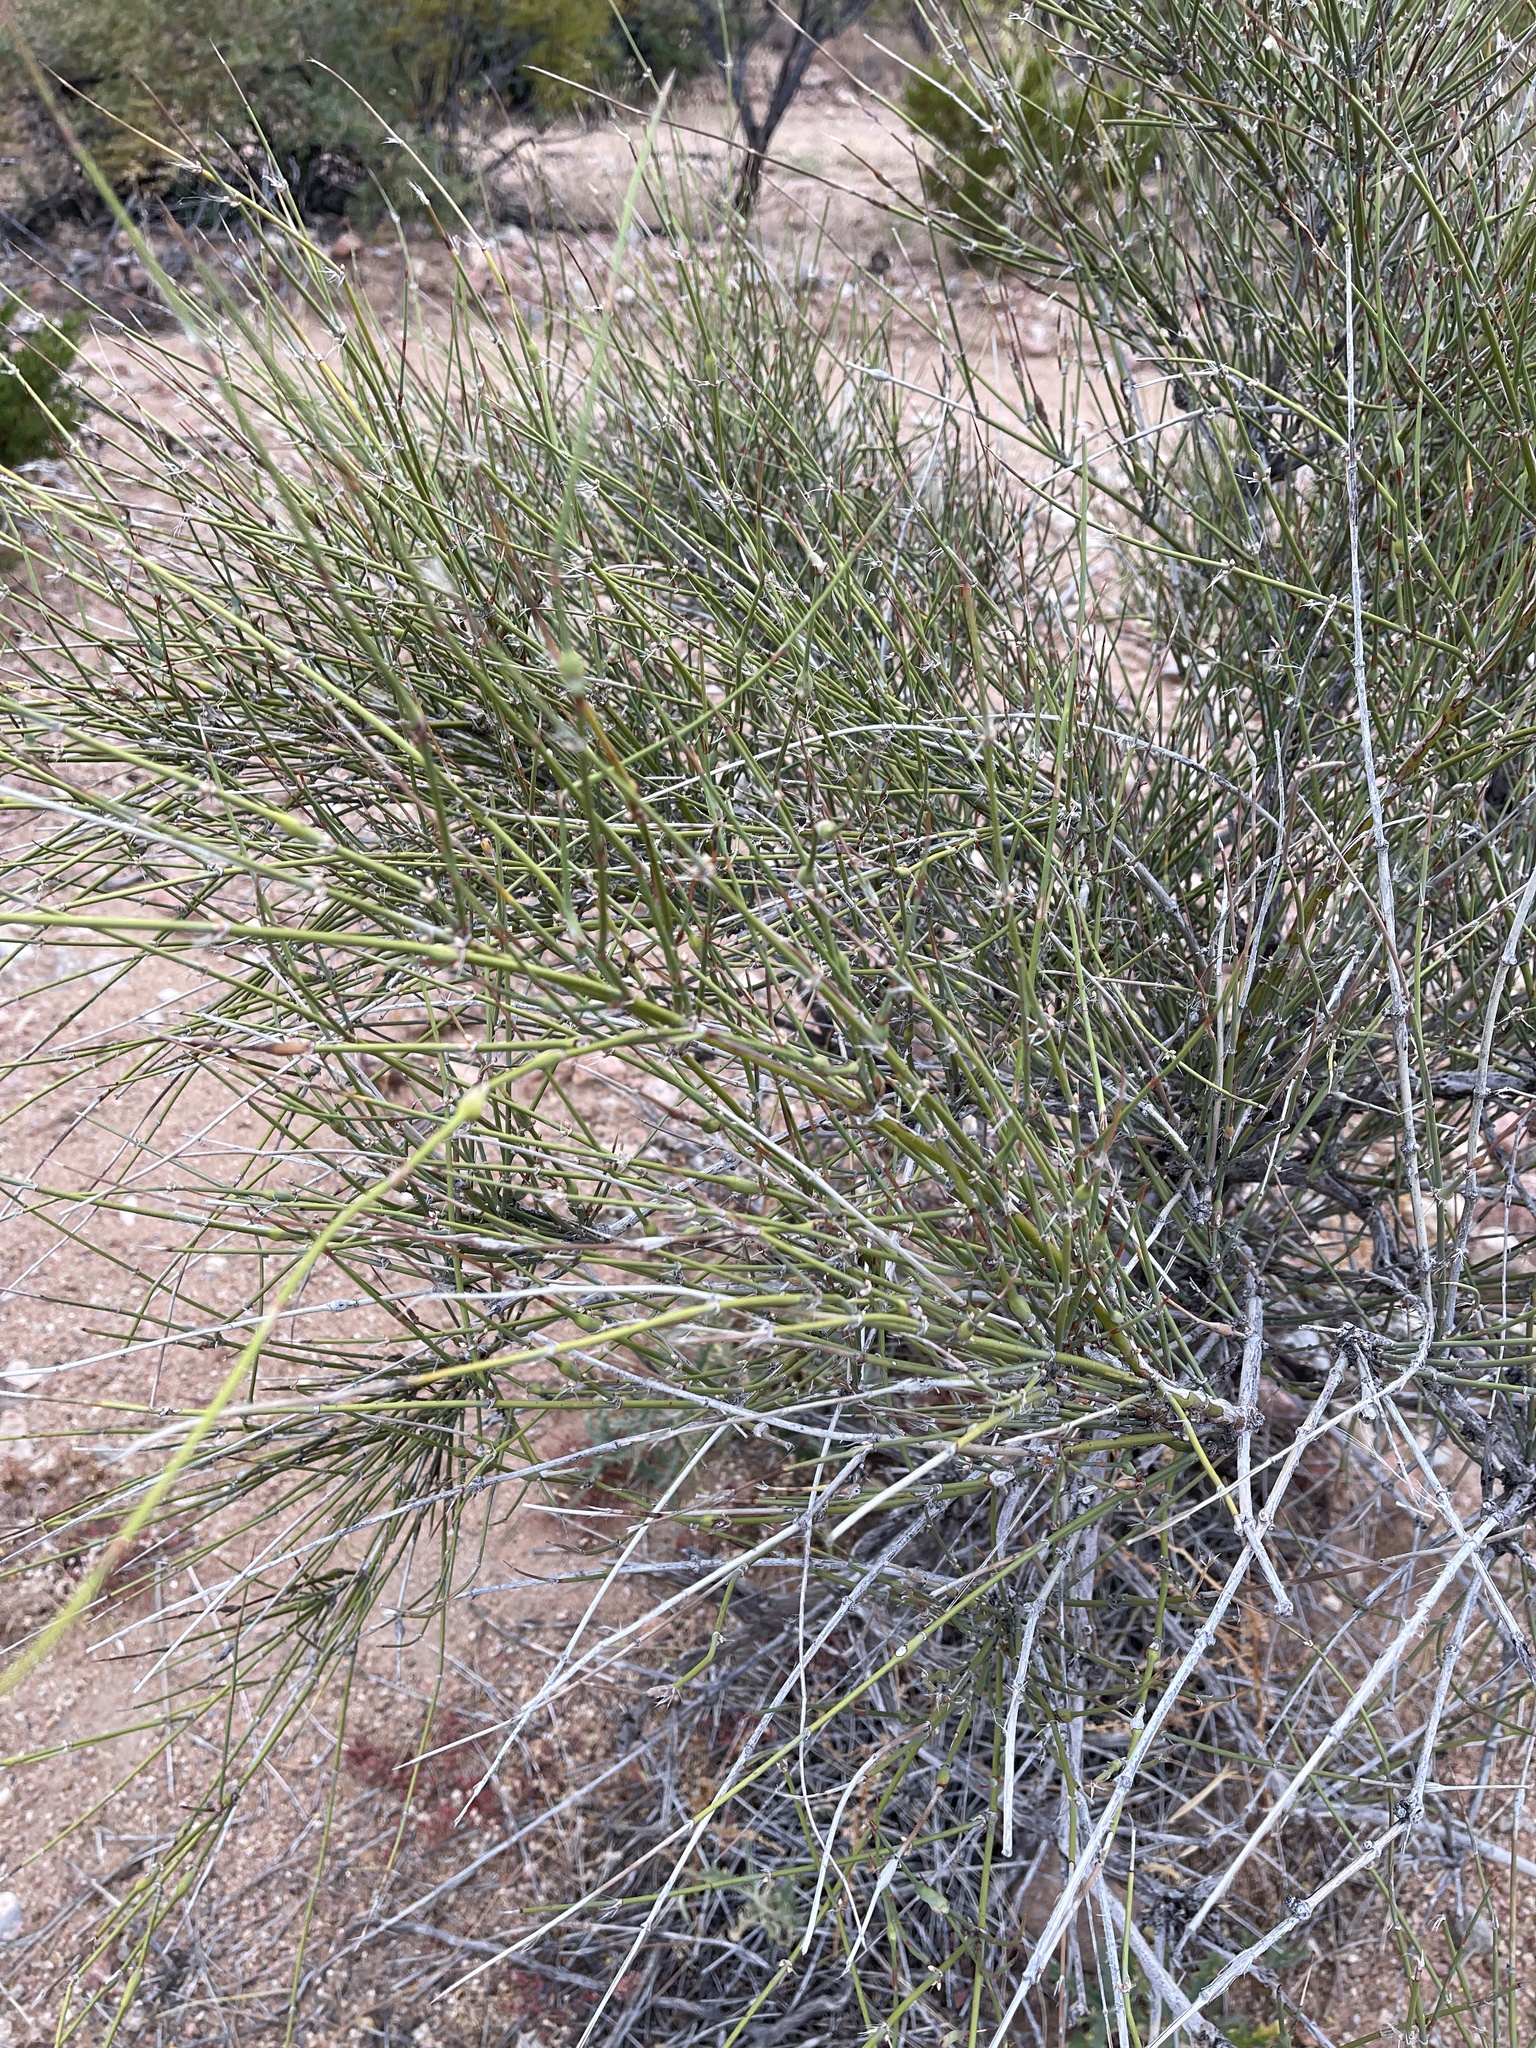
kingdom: Plantae
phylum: Tracheophyta
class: Gnetopsida
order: Ephedrales
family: Ephedraceae
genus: Ephedra
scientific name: Ephedra trifurca
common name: Mexican-tea
